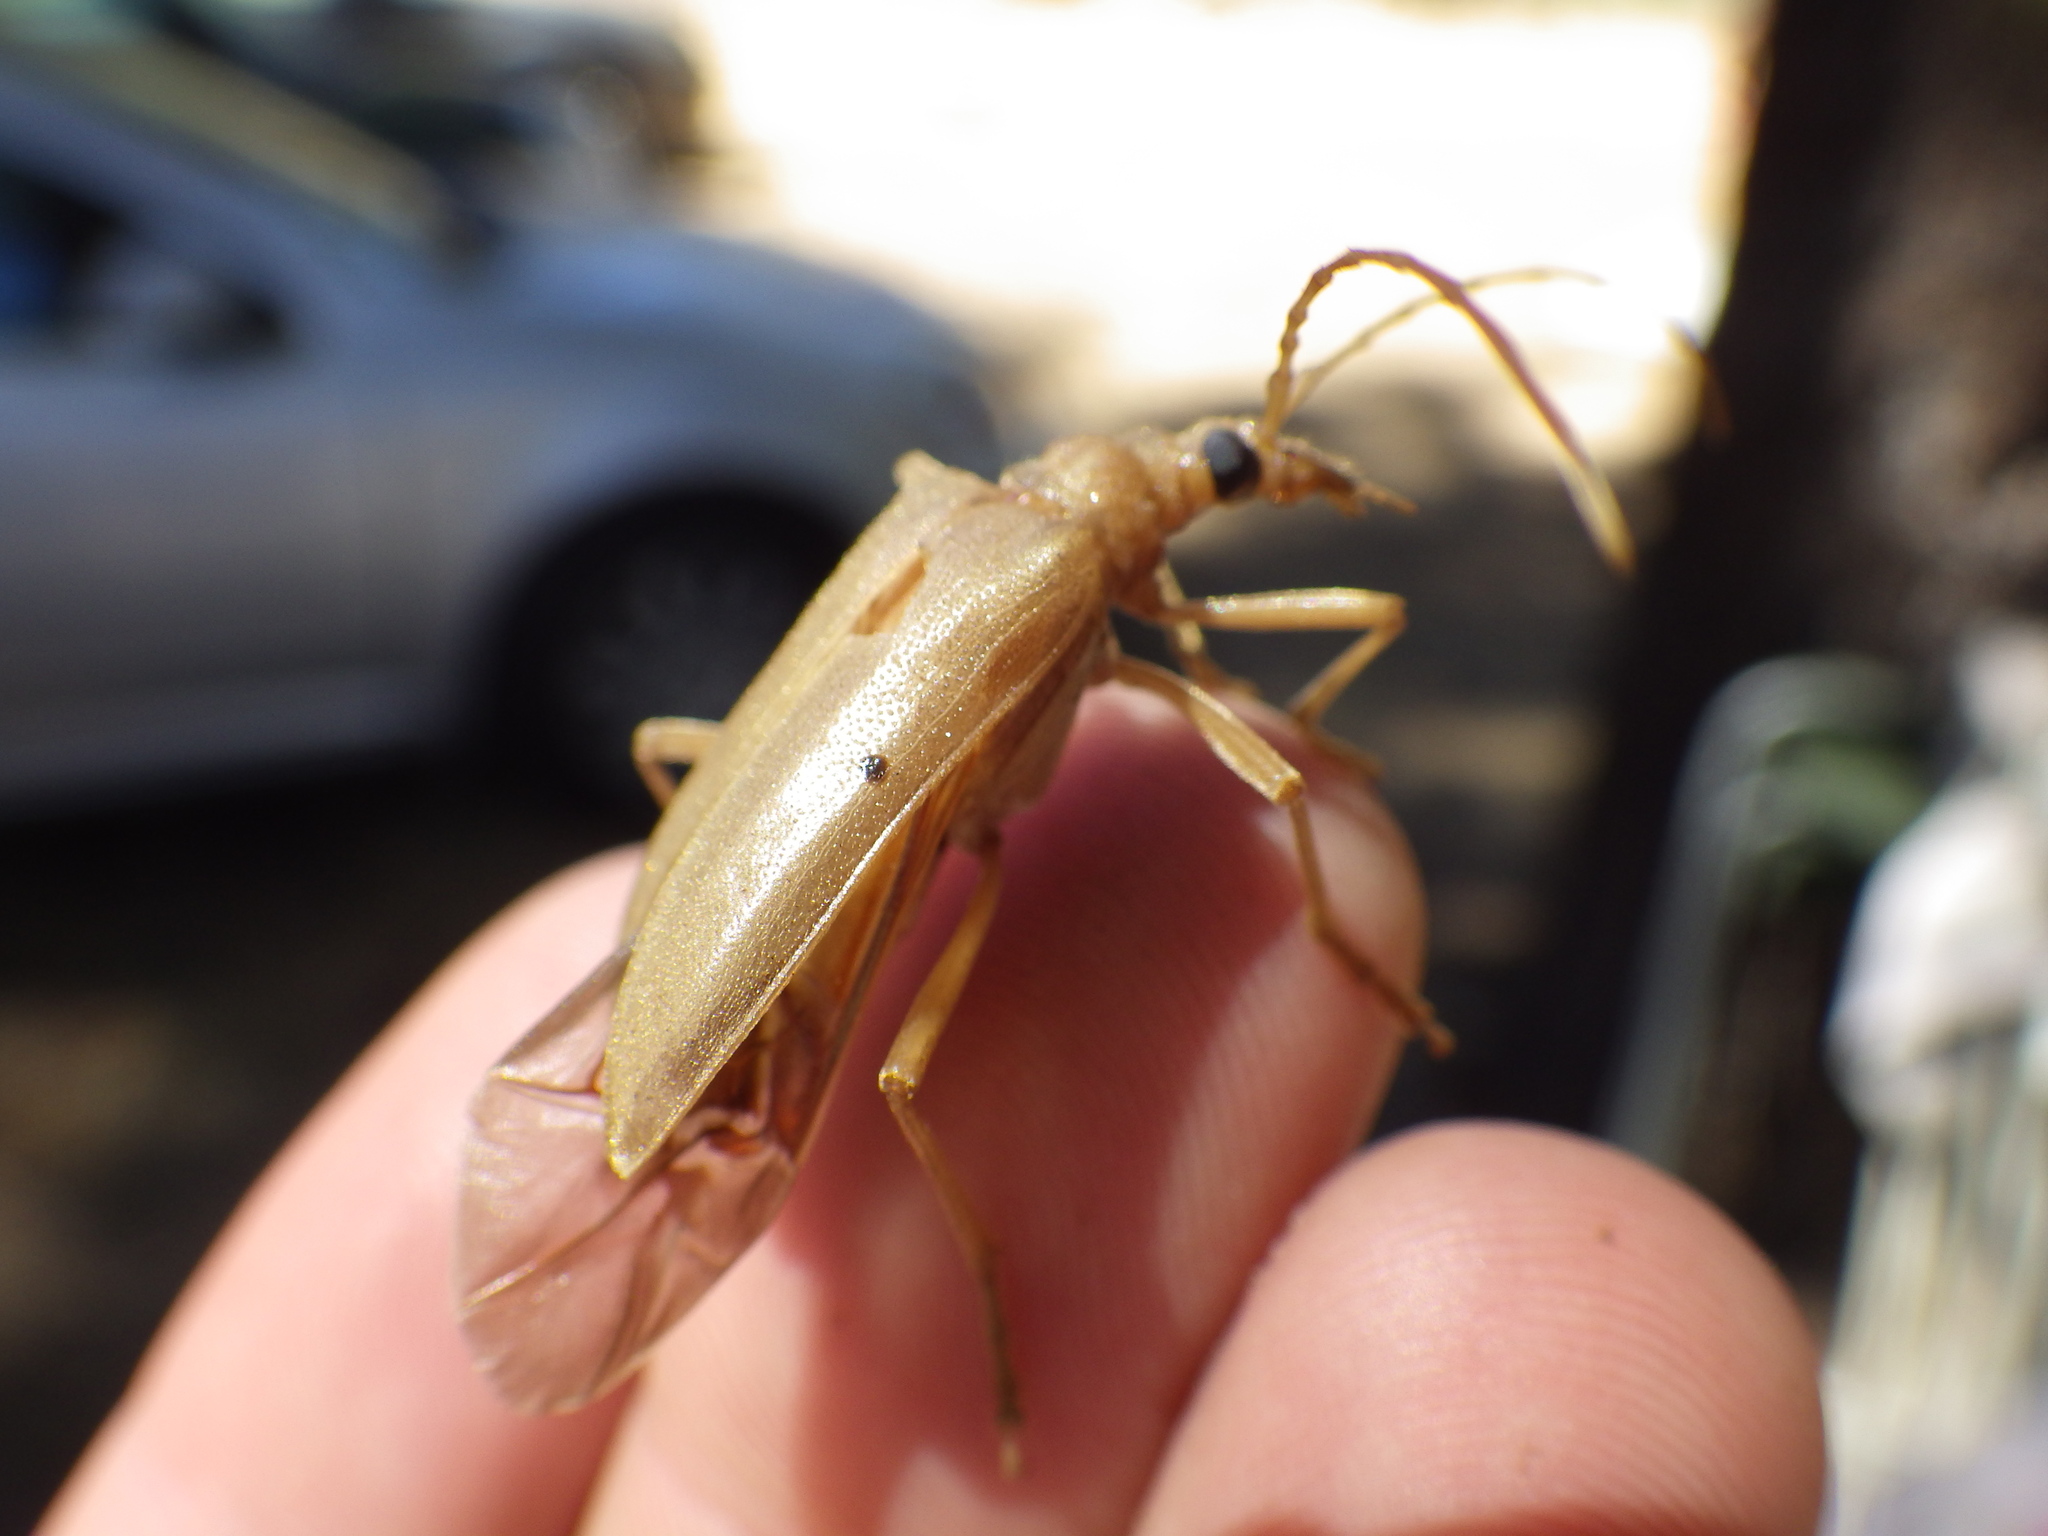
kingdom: Animalia
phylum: Arthropoda
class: Insecta
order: Coleoptera
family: Cerambycidae
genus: Centrodera
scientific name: Centrodera spurca
